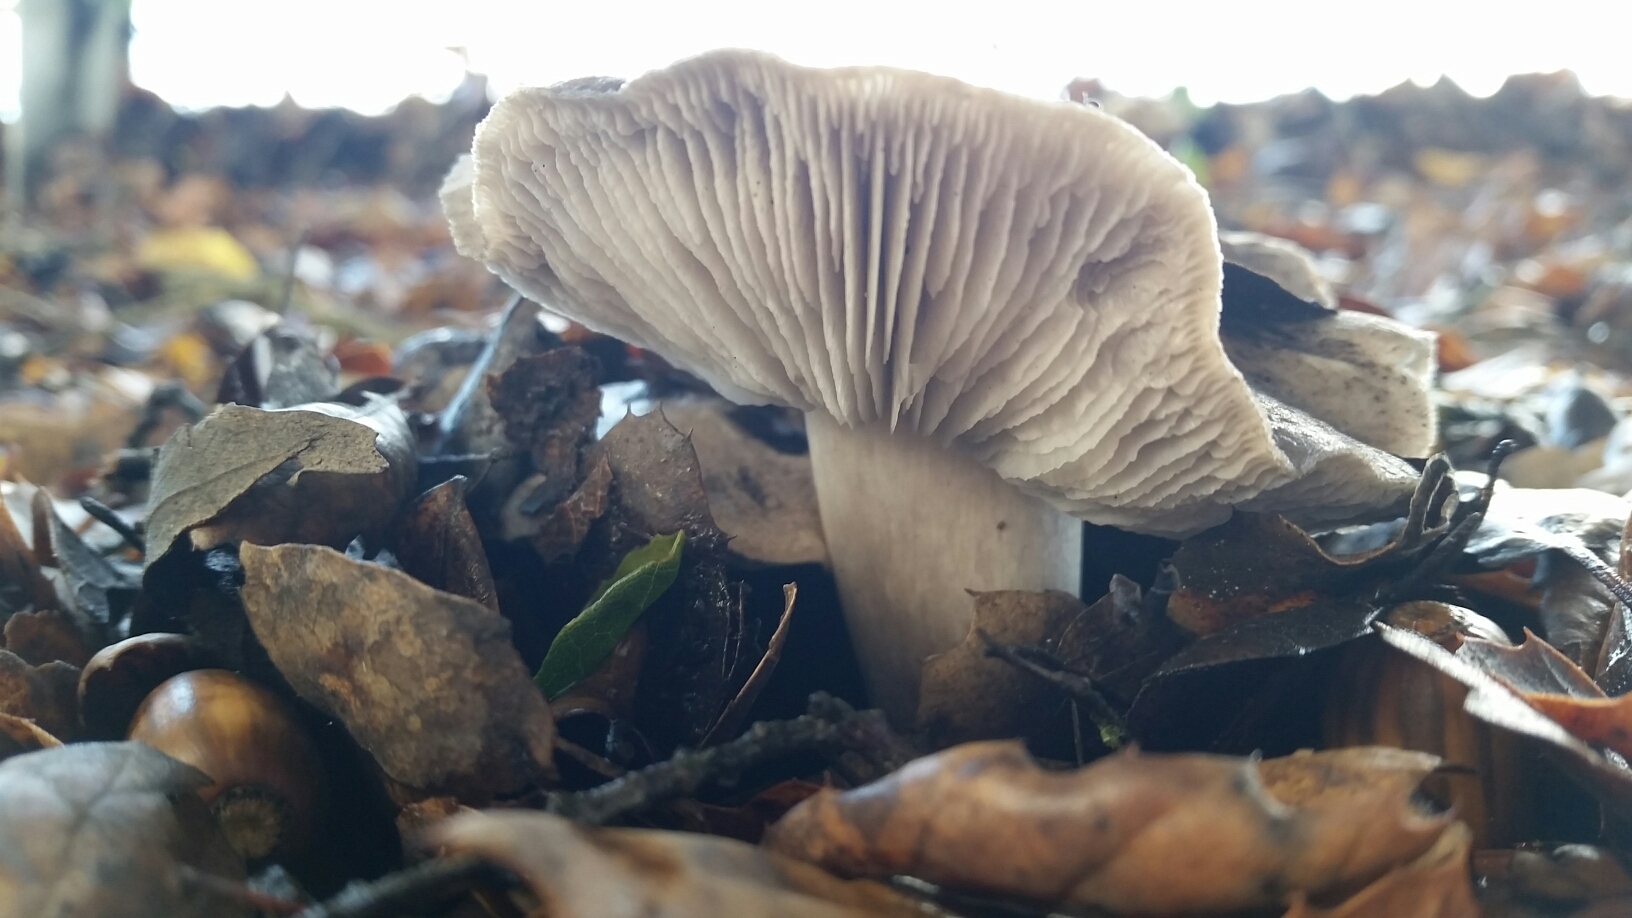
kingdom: Fungi
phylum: Basidiomycota
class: Agaricomycetes
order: Agaricales
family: Tricholomataceae
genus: Tricholoma
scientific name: Tricholoma terreum
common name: Grey knight
